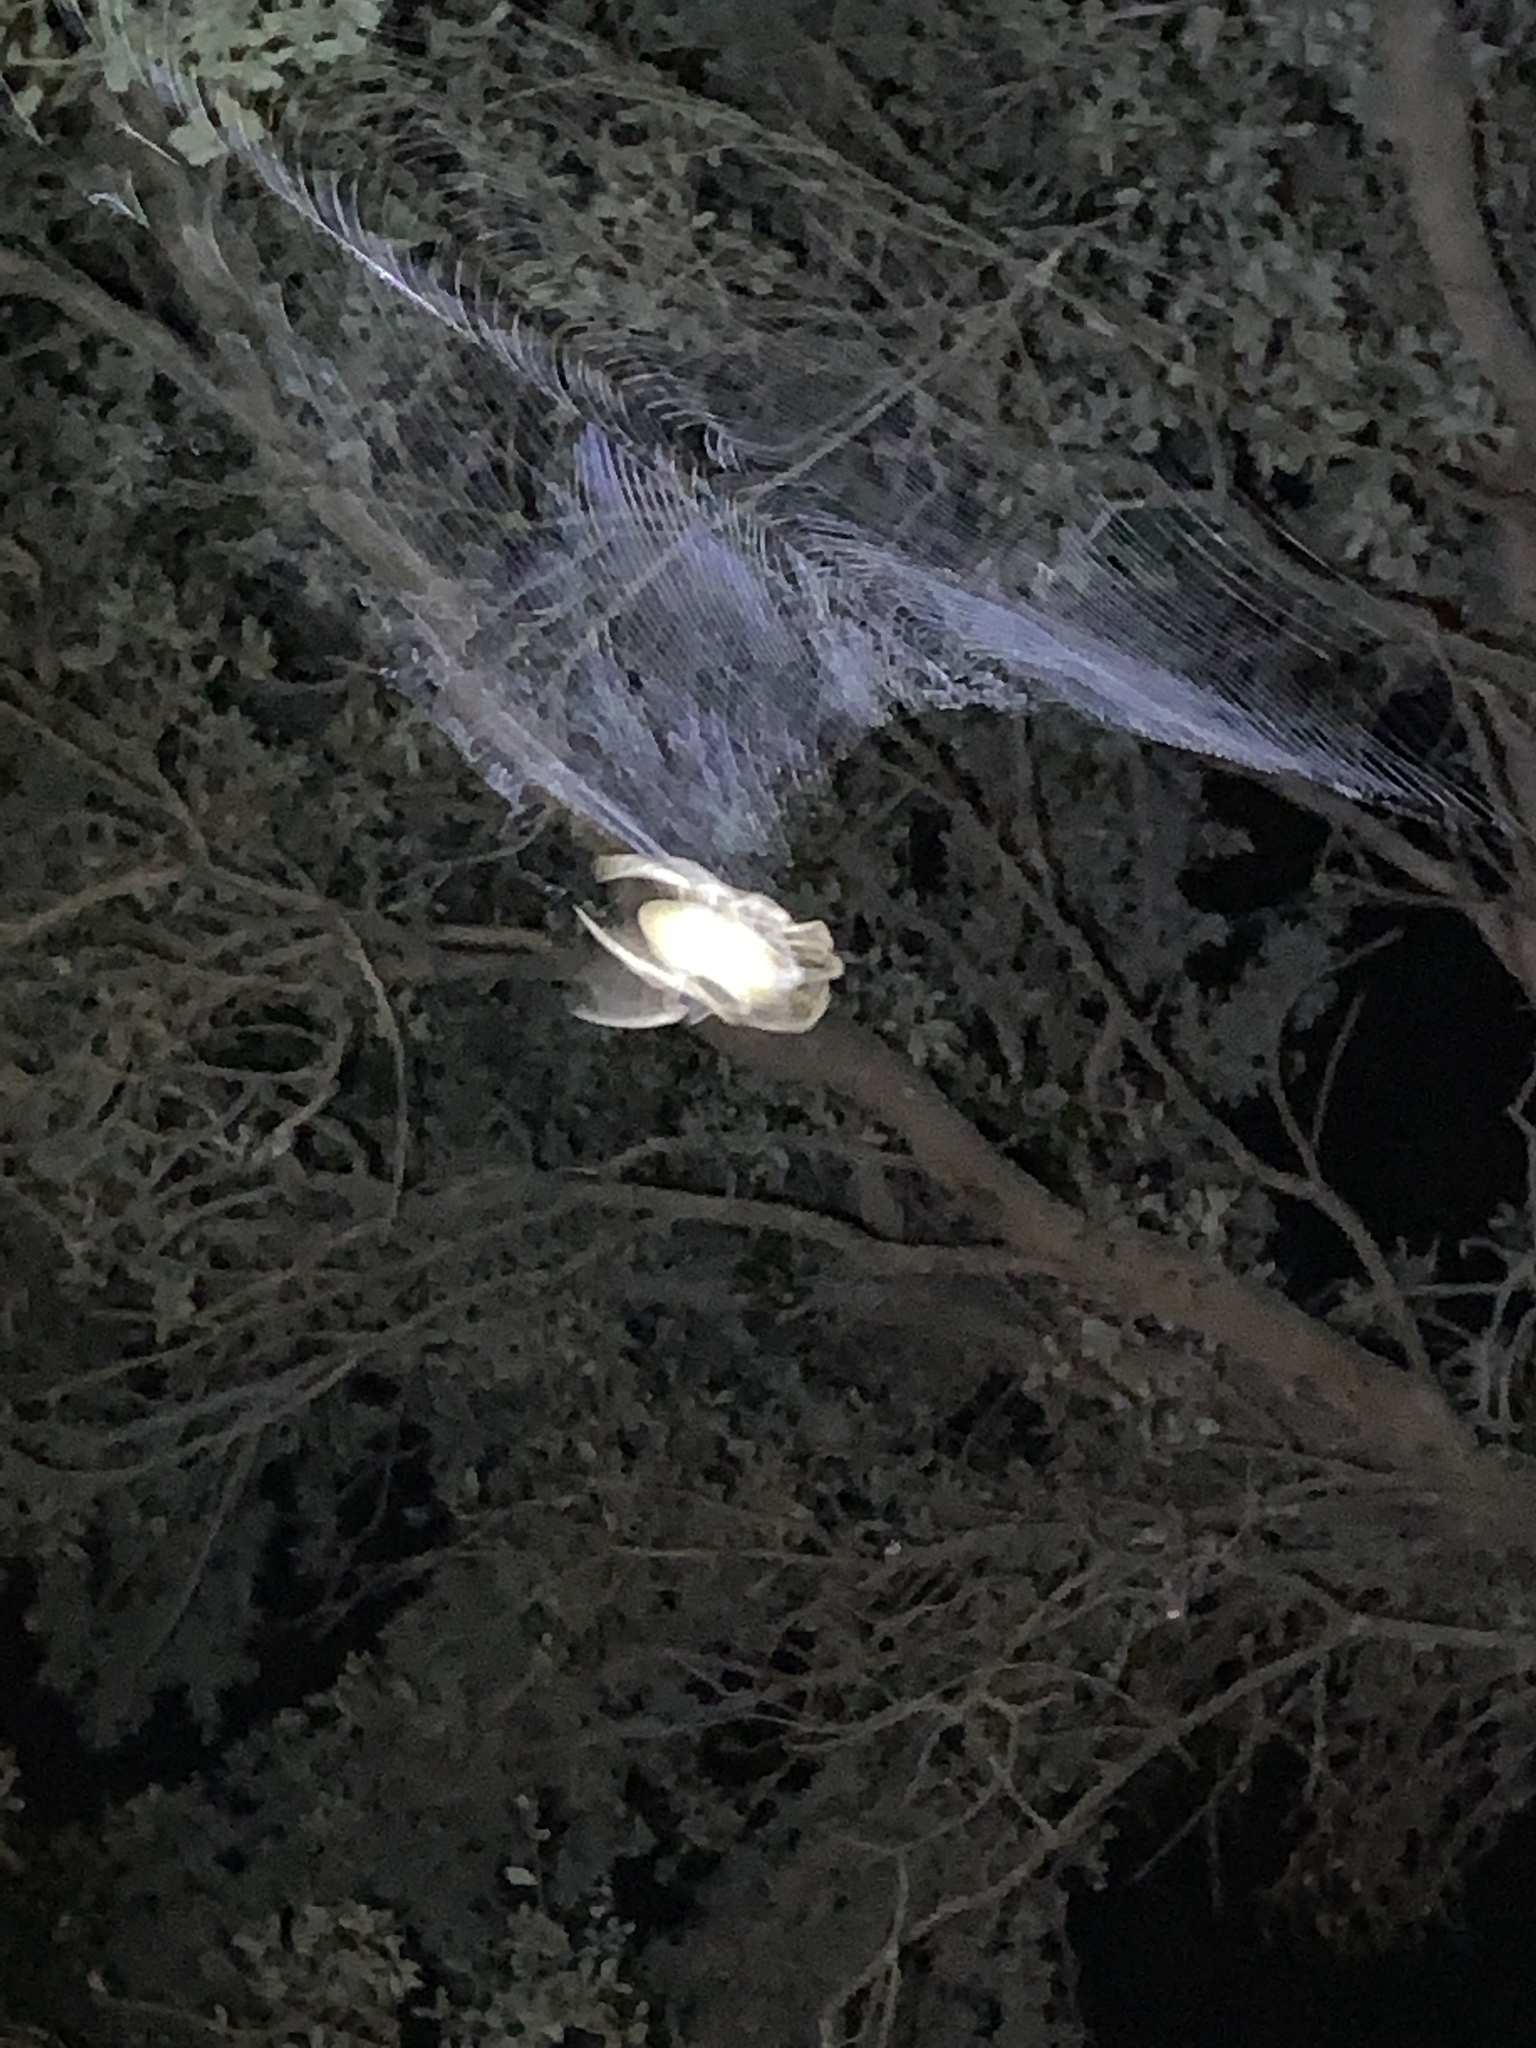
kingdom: Animalia
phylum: Arthropoda
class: Arachnida
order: Araneae
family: Araneidae
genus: Eriophora
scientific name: Eriophora ravilla
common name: Orb weavers
